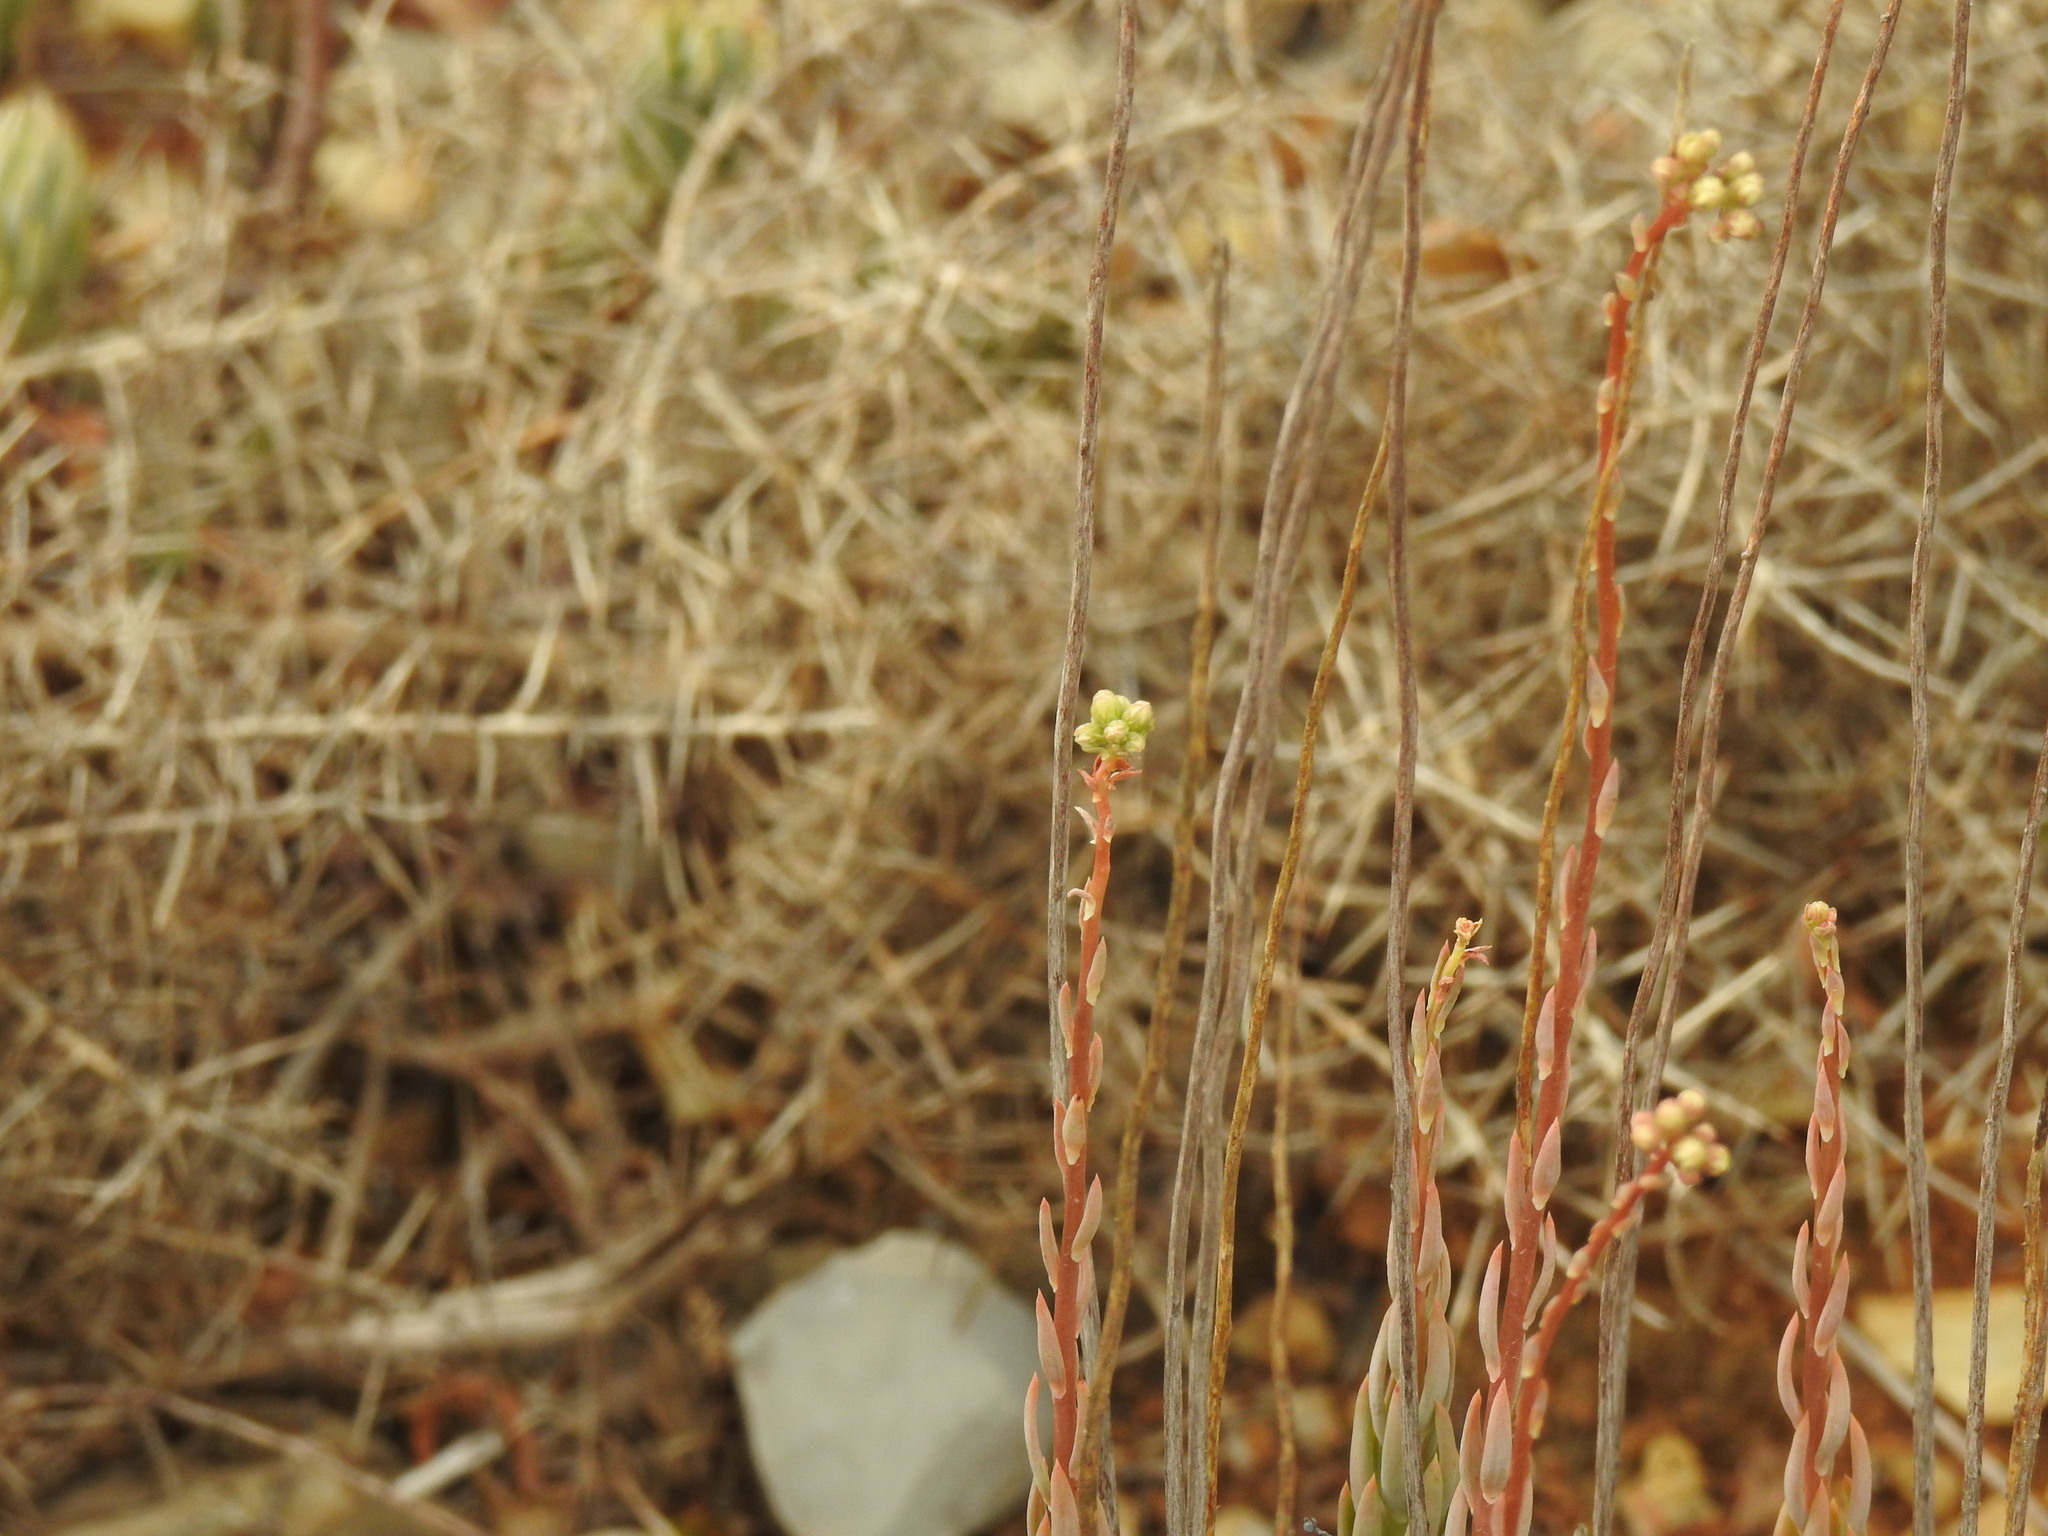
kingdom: Plantae
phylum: Tracheophyta
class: Magnoliopsida
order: Saxifragales
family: Crassulaceae
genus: Petrosedum
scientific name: Petrosedum sediforme
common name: Pale stonecrop
